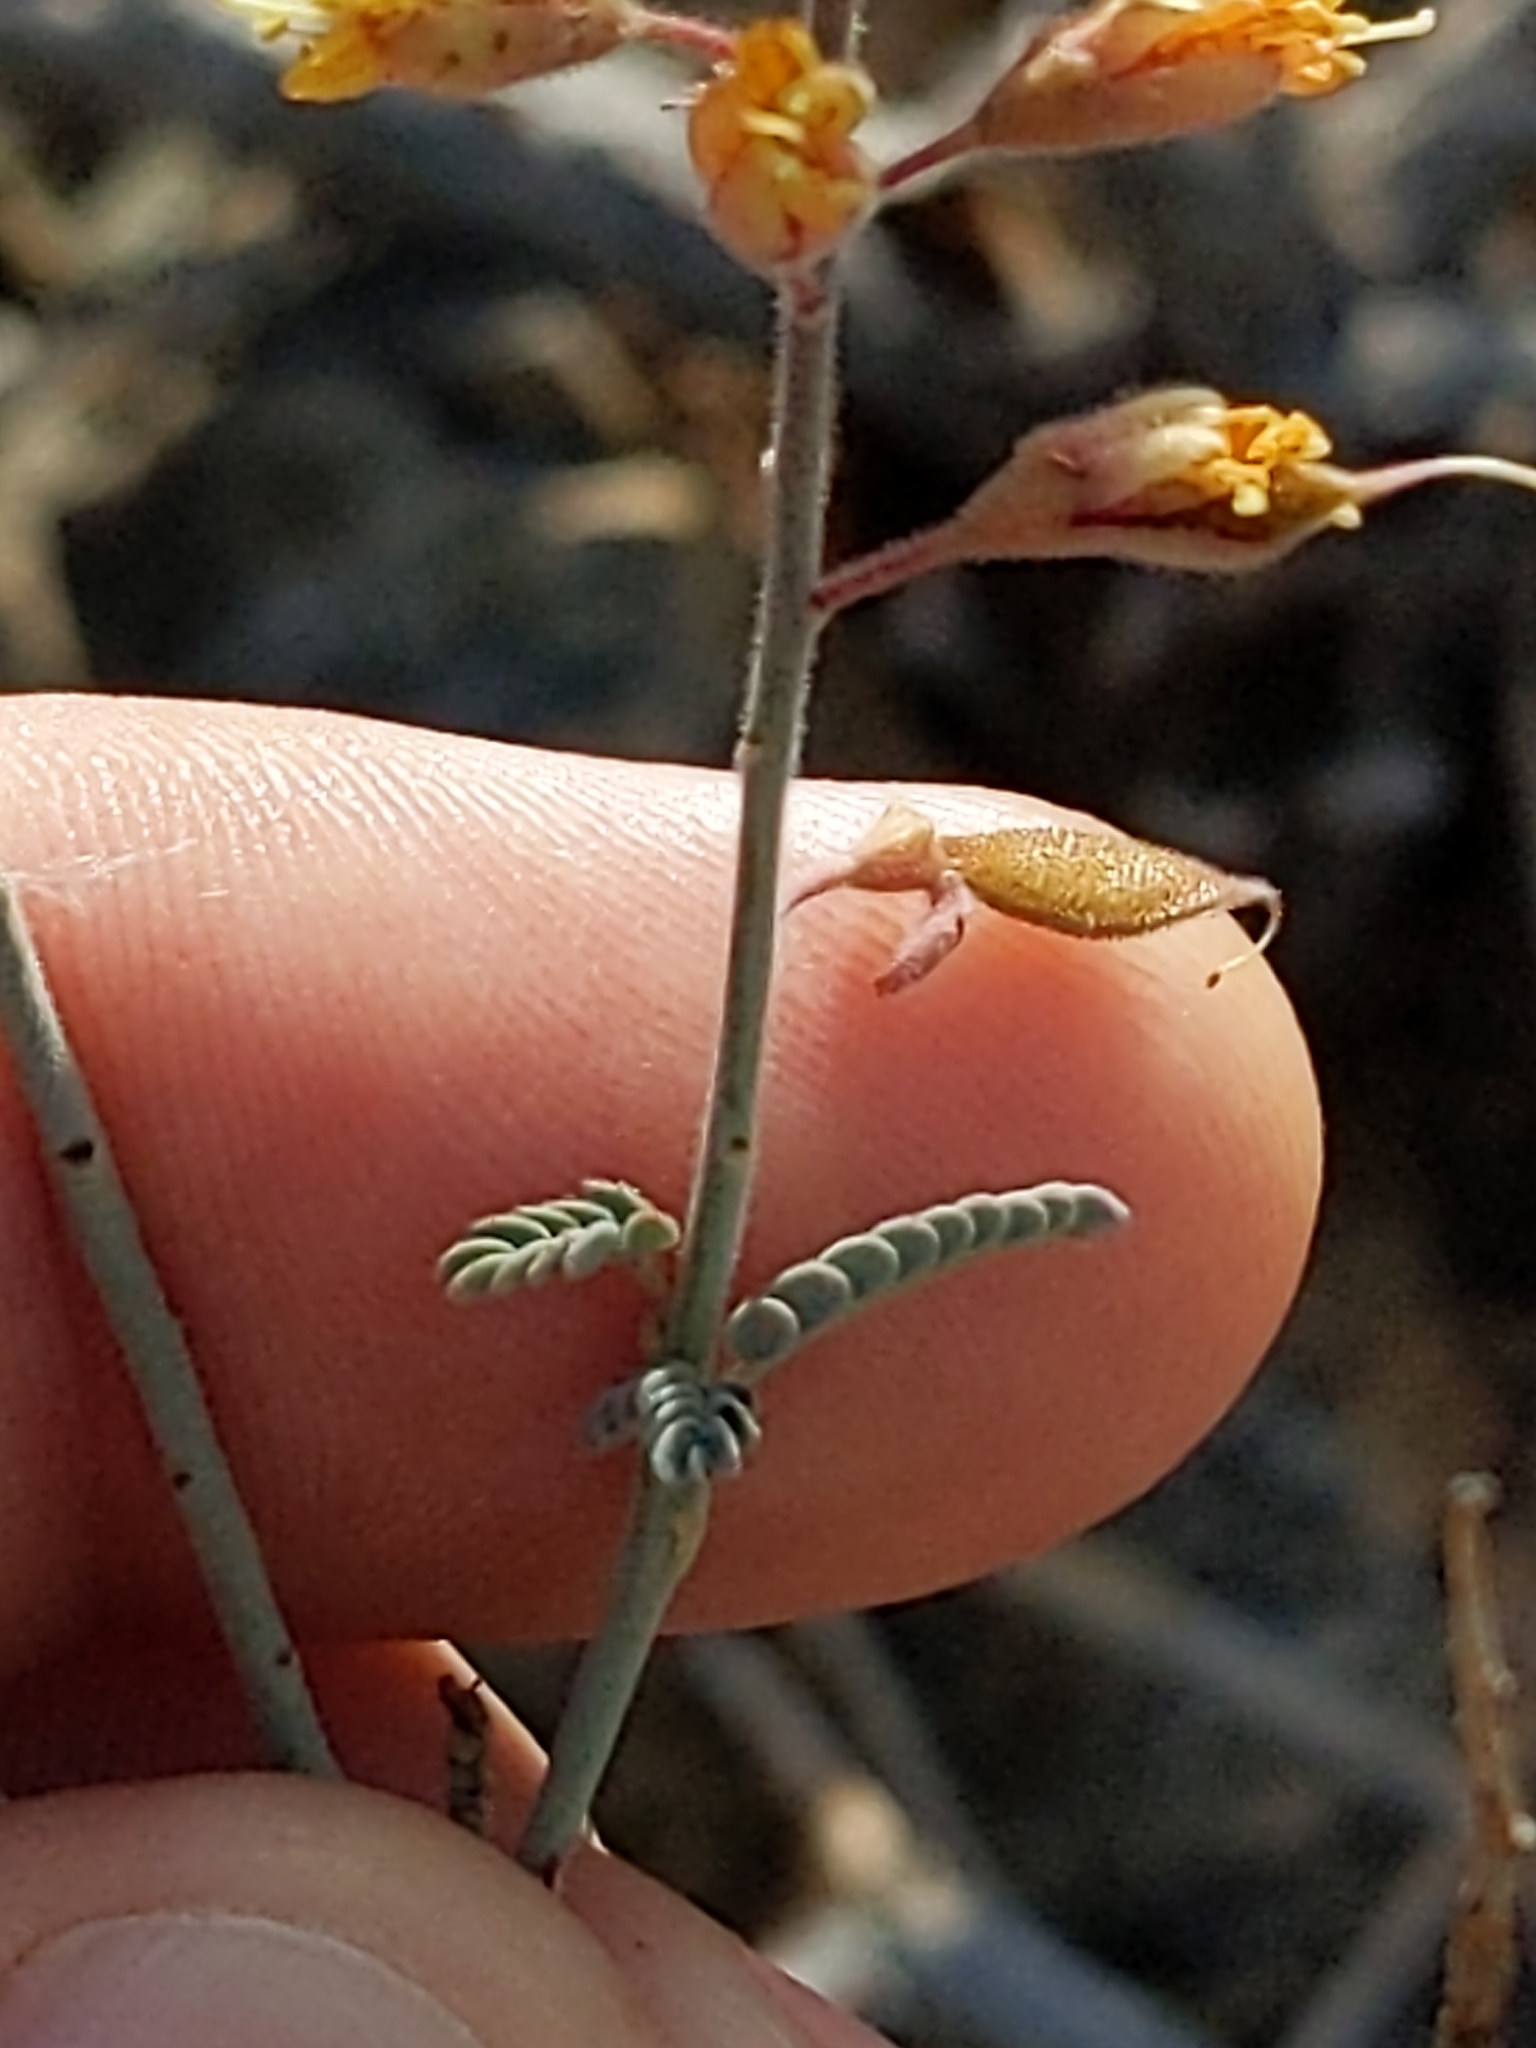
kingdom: Plantae
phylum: Tracheophyta
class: Magnoliopsida
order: Fabales
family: Fabaceae
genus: Hoffmannseggia
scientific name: Hoffmannseggia microphylla
